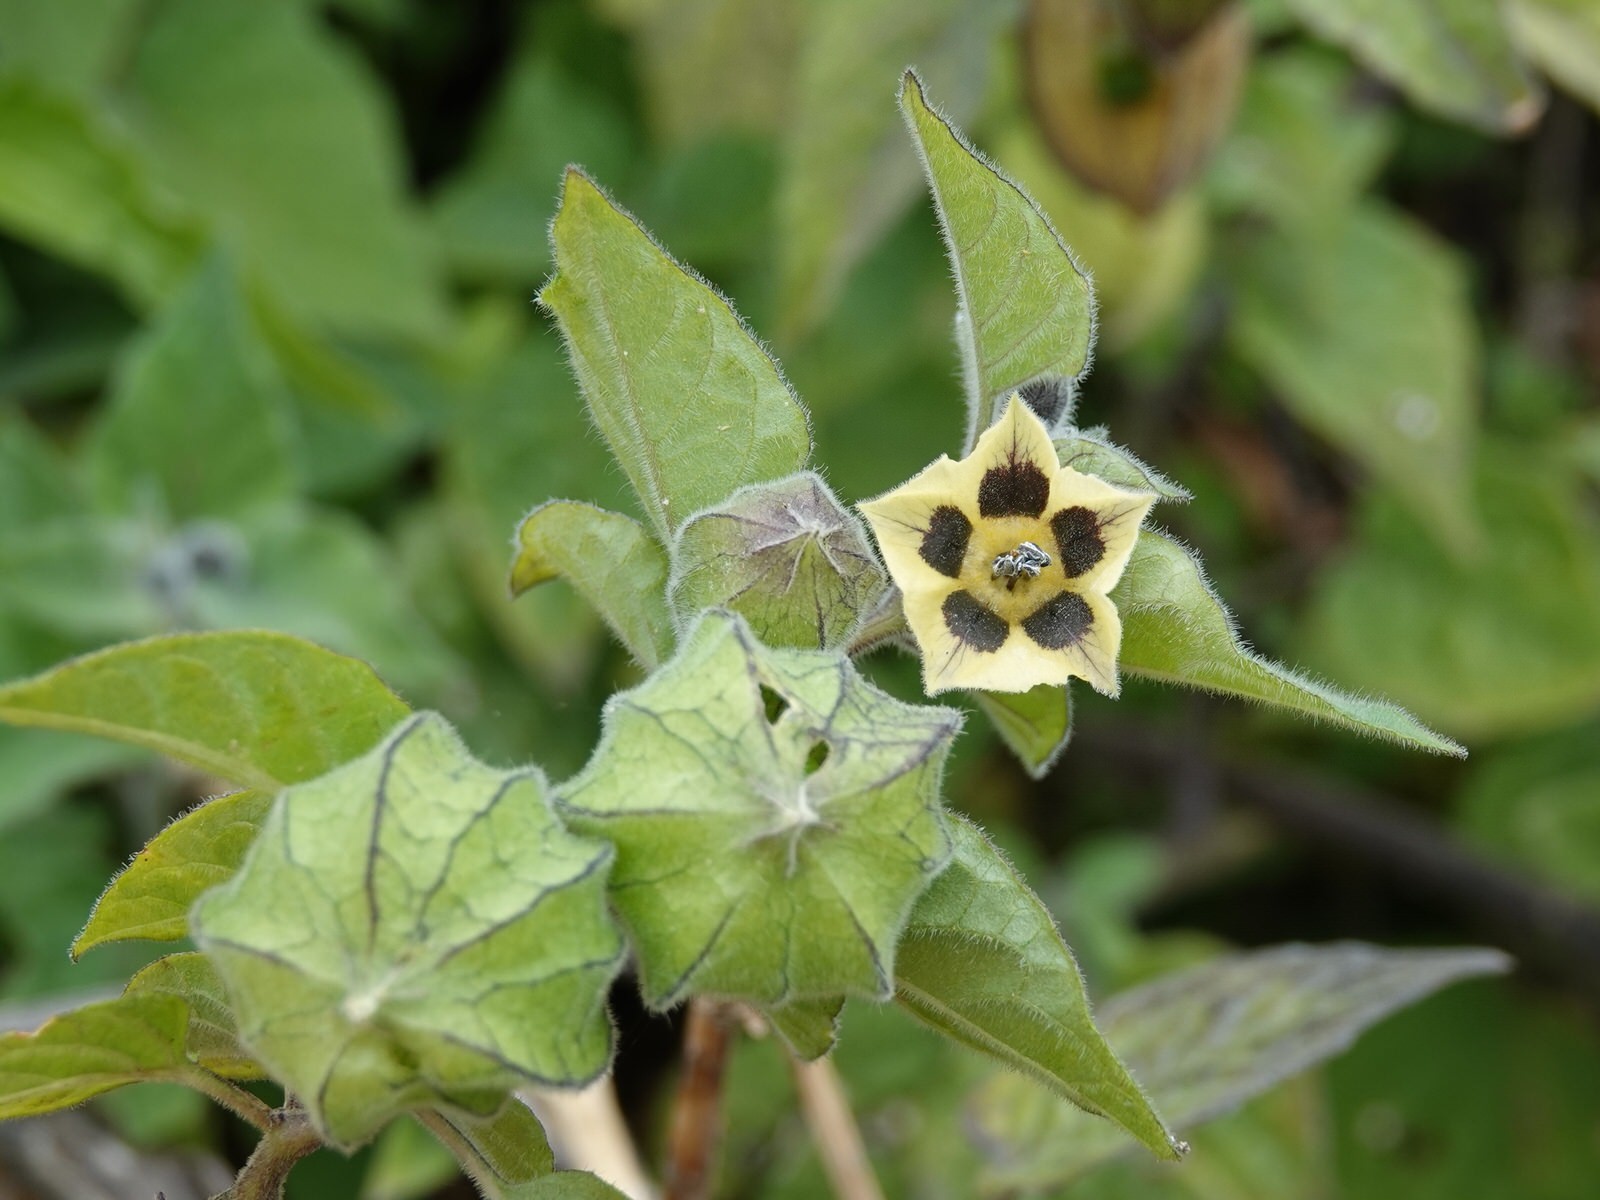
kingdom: Plantae
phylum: Tracheophyta
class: Magnoliopsida
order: Solanales
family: Solanaceae
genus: Physalis
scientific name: Physalis peruviana
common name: Cape-gooseberry
